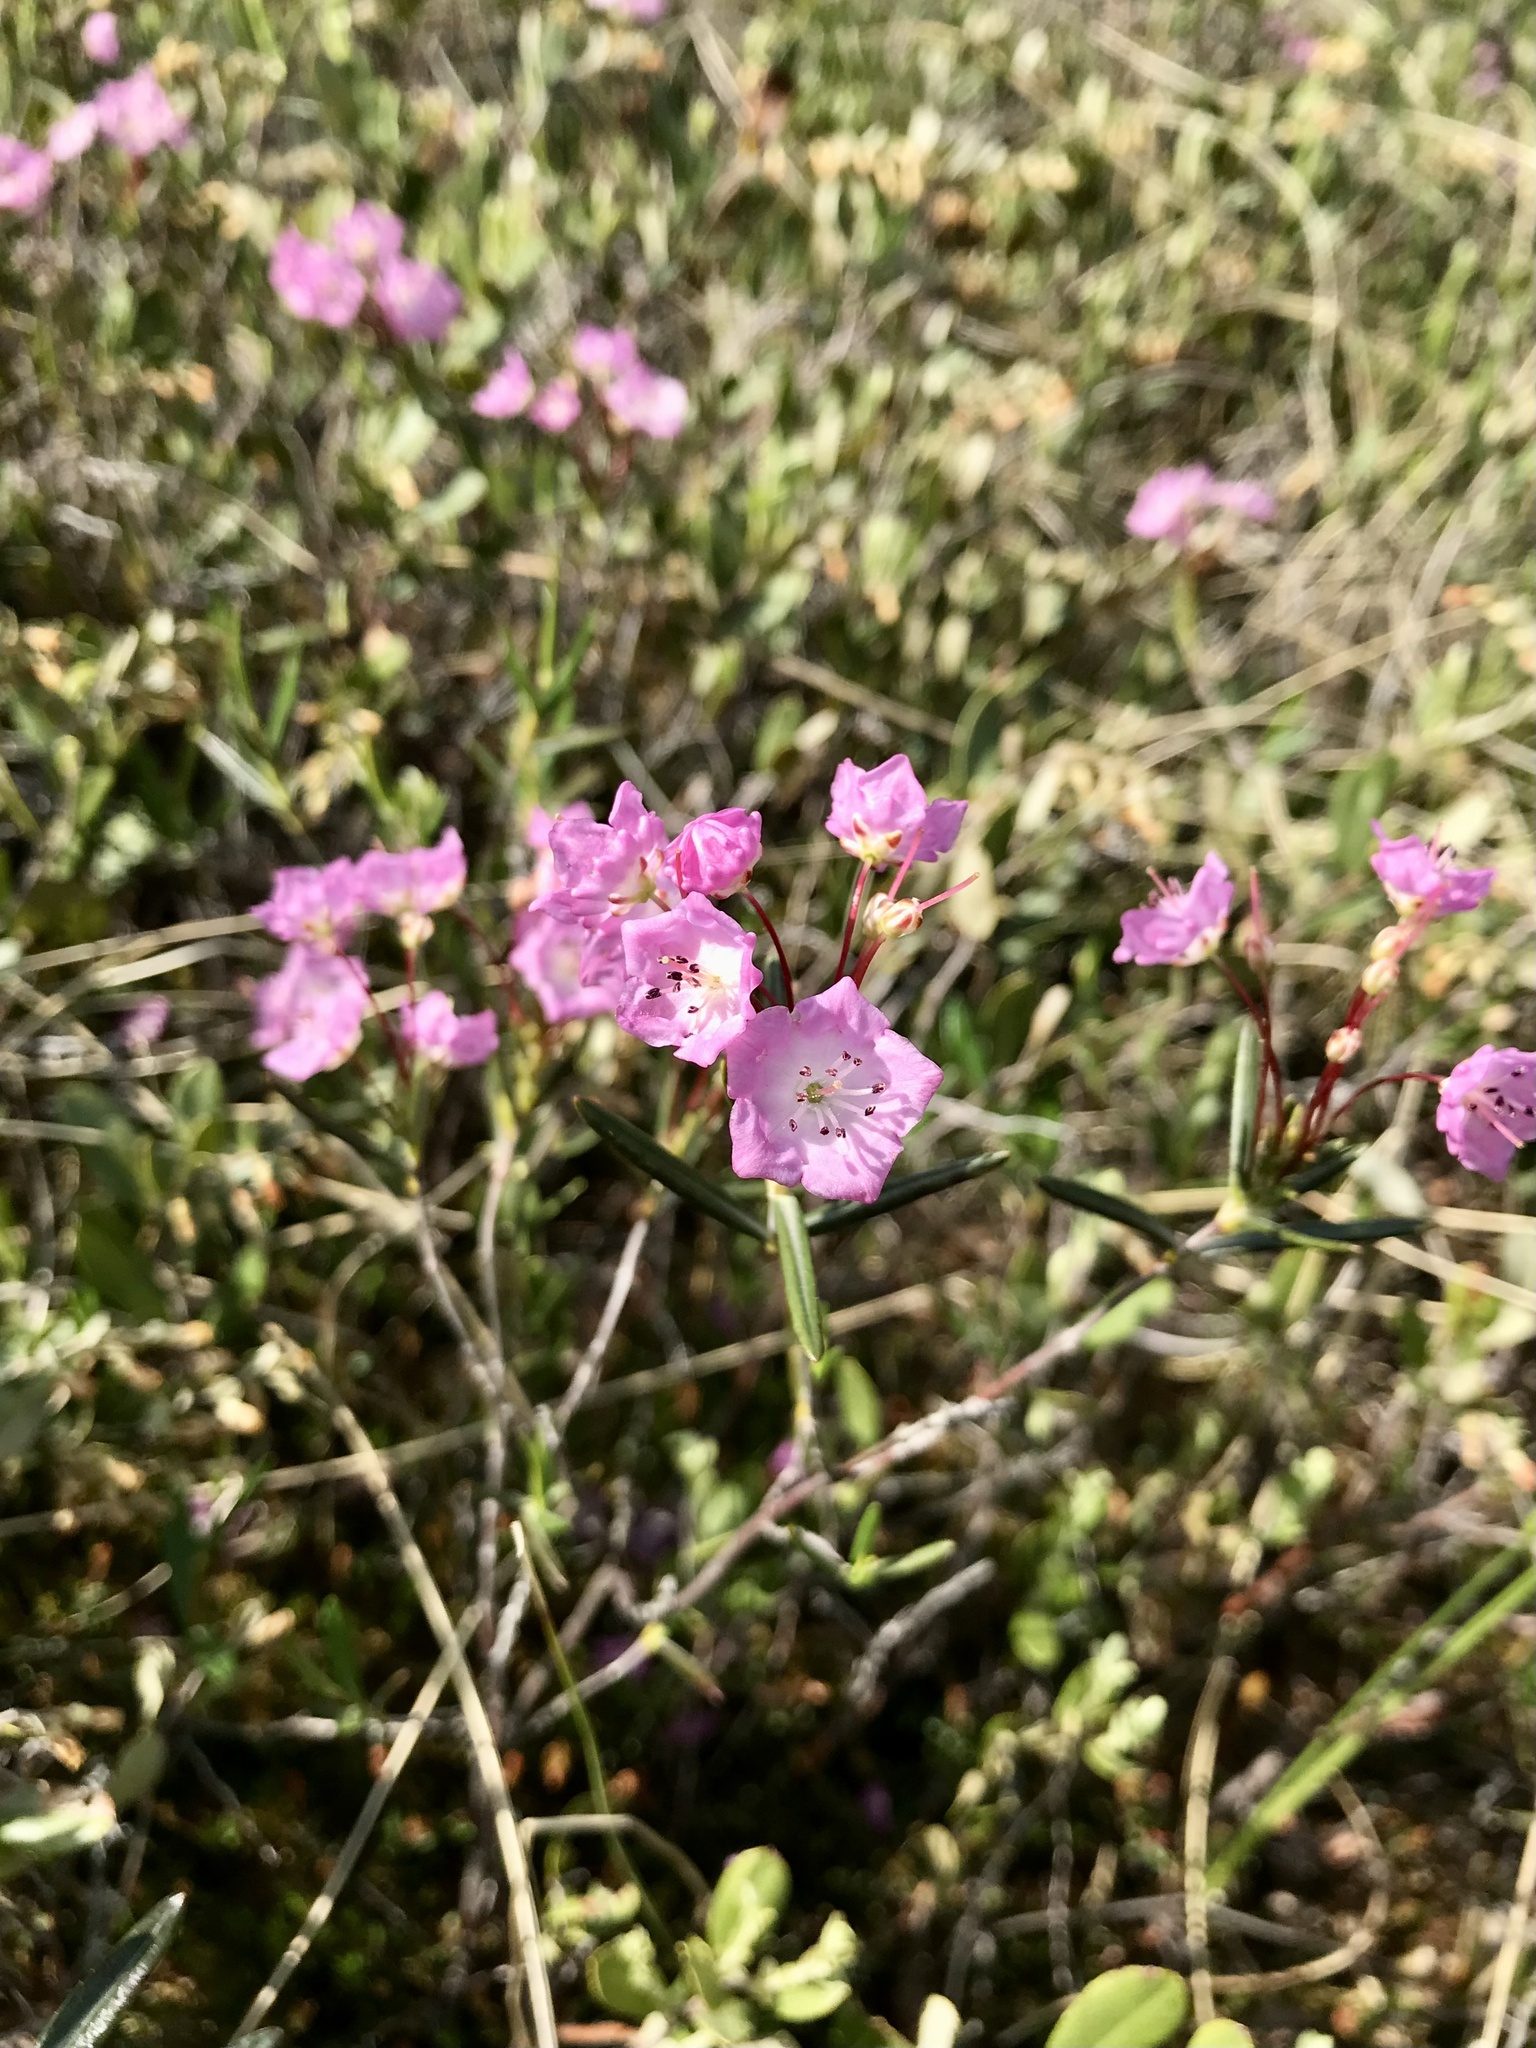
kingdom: Plantae
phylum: Tracheophyta
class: Magnoliopsida
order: Ericales
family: Ericaceae
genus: Kalmia
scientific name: Kalmia polifolia
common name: Bog-laurel
